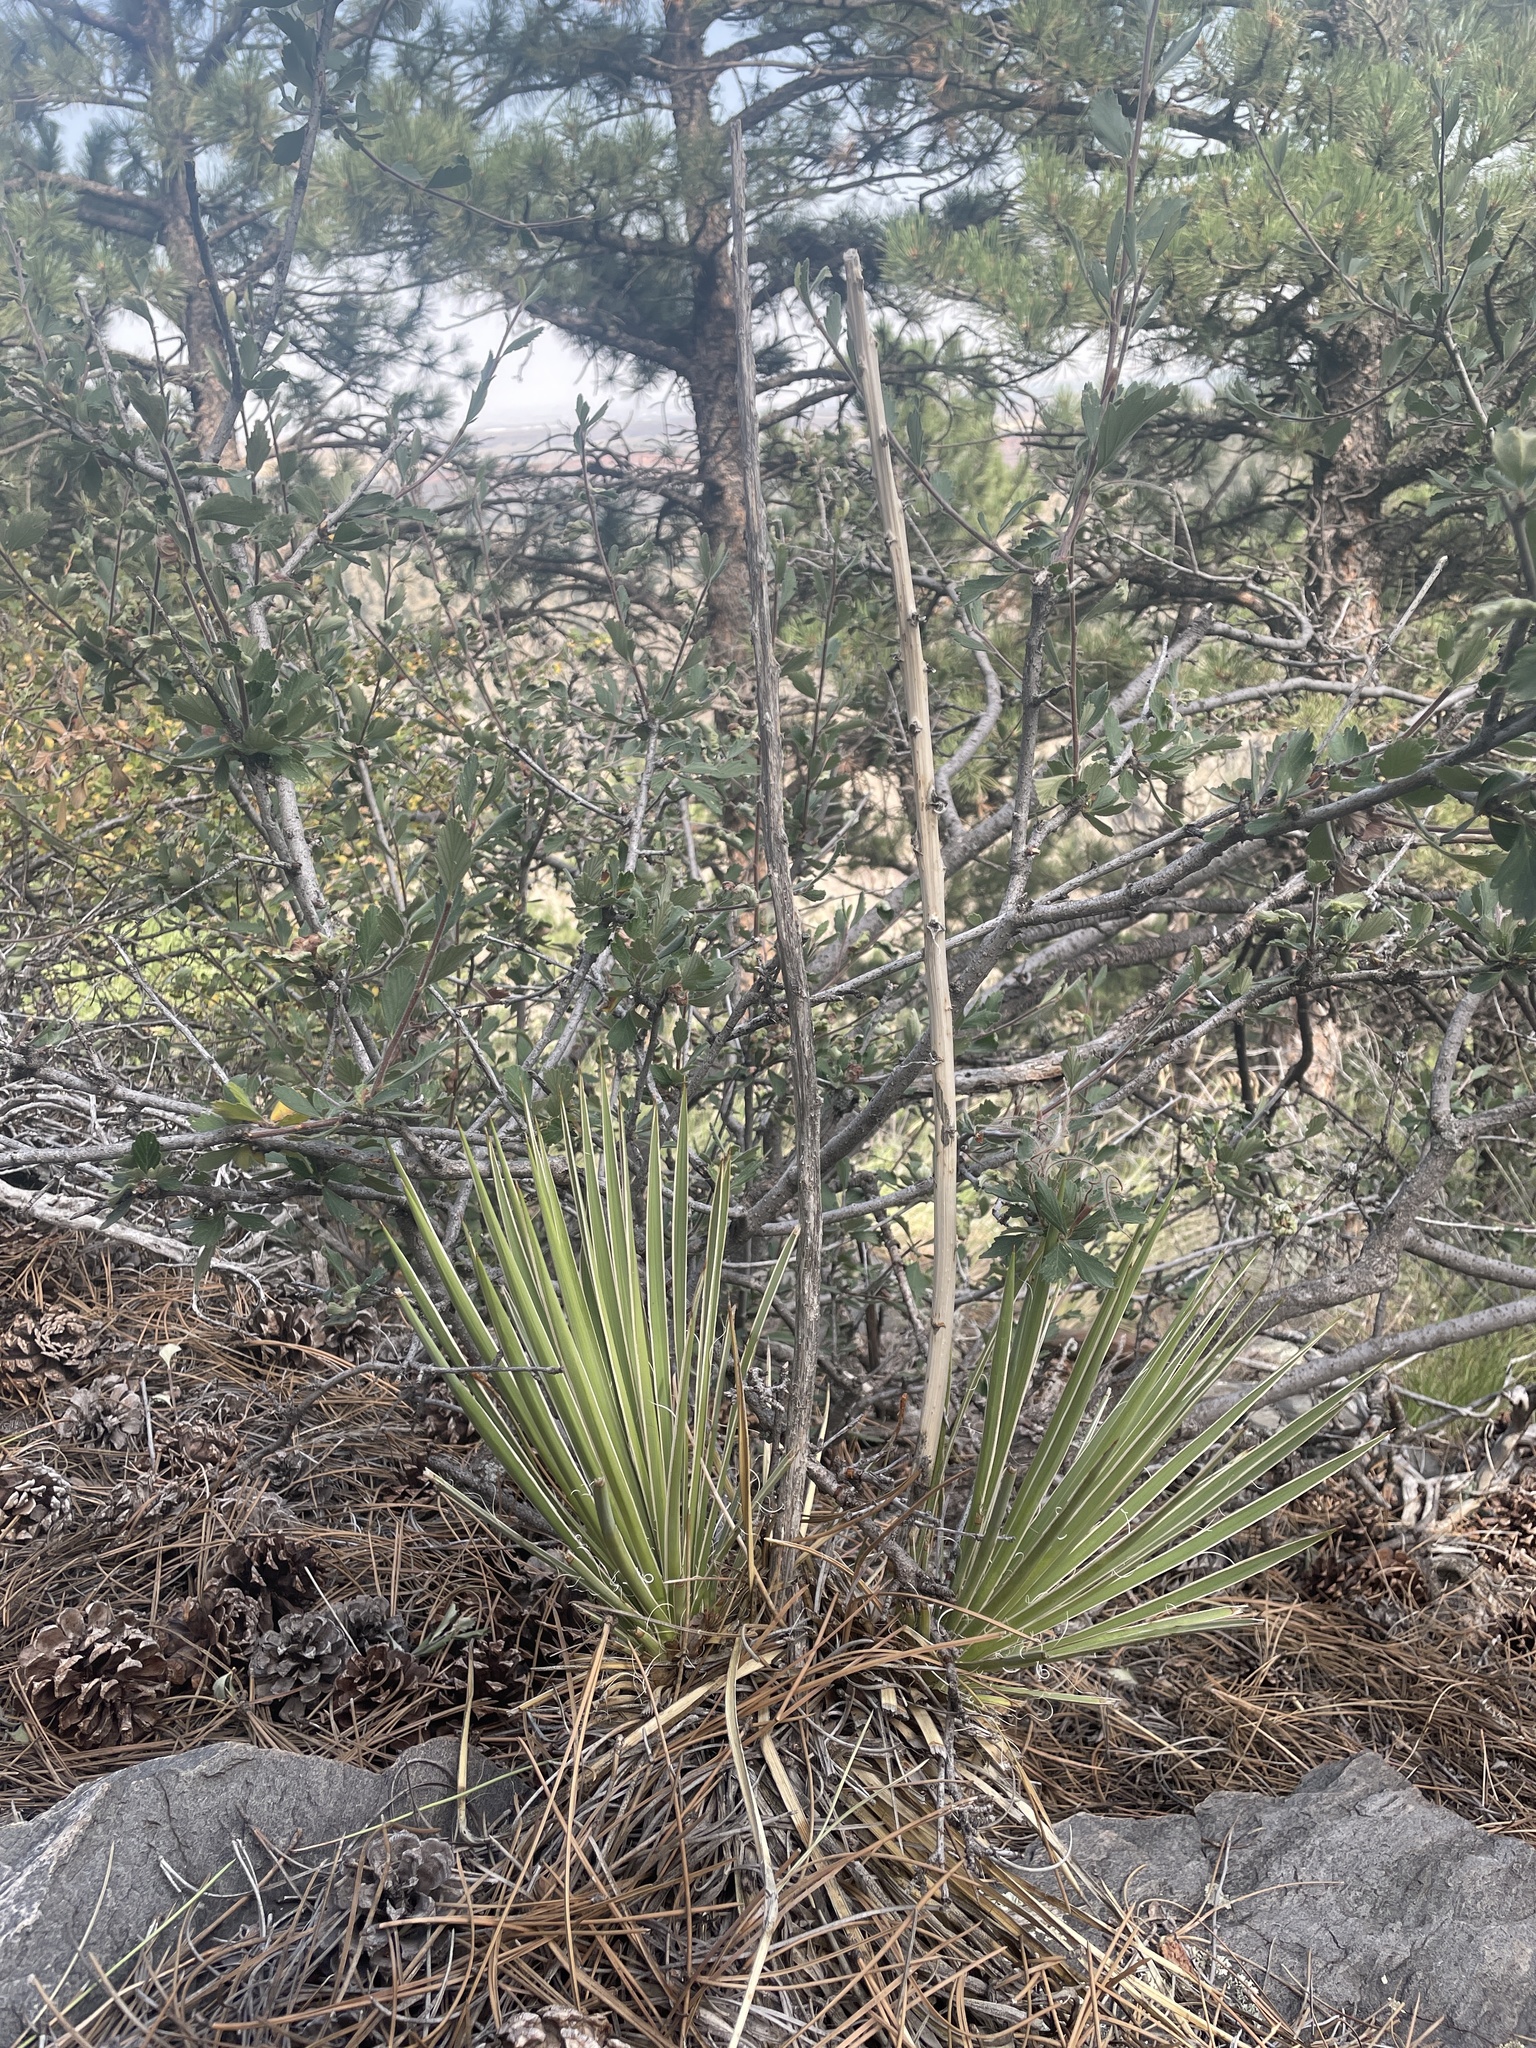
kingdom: Plantae
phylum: Tracheophyta
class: Liliopsida
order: Asparagales
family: Asparagaceae
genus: Yucca
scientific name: Yucca glauca
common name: Great plains yucca
